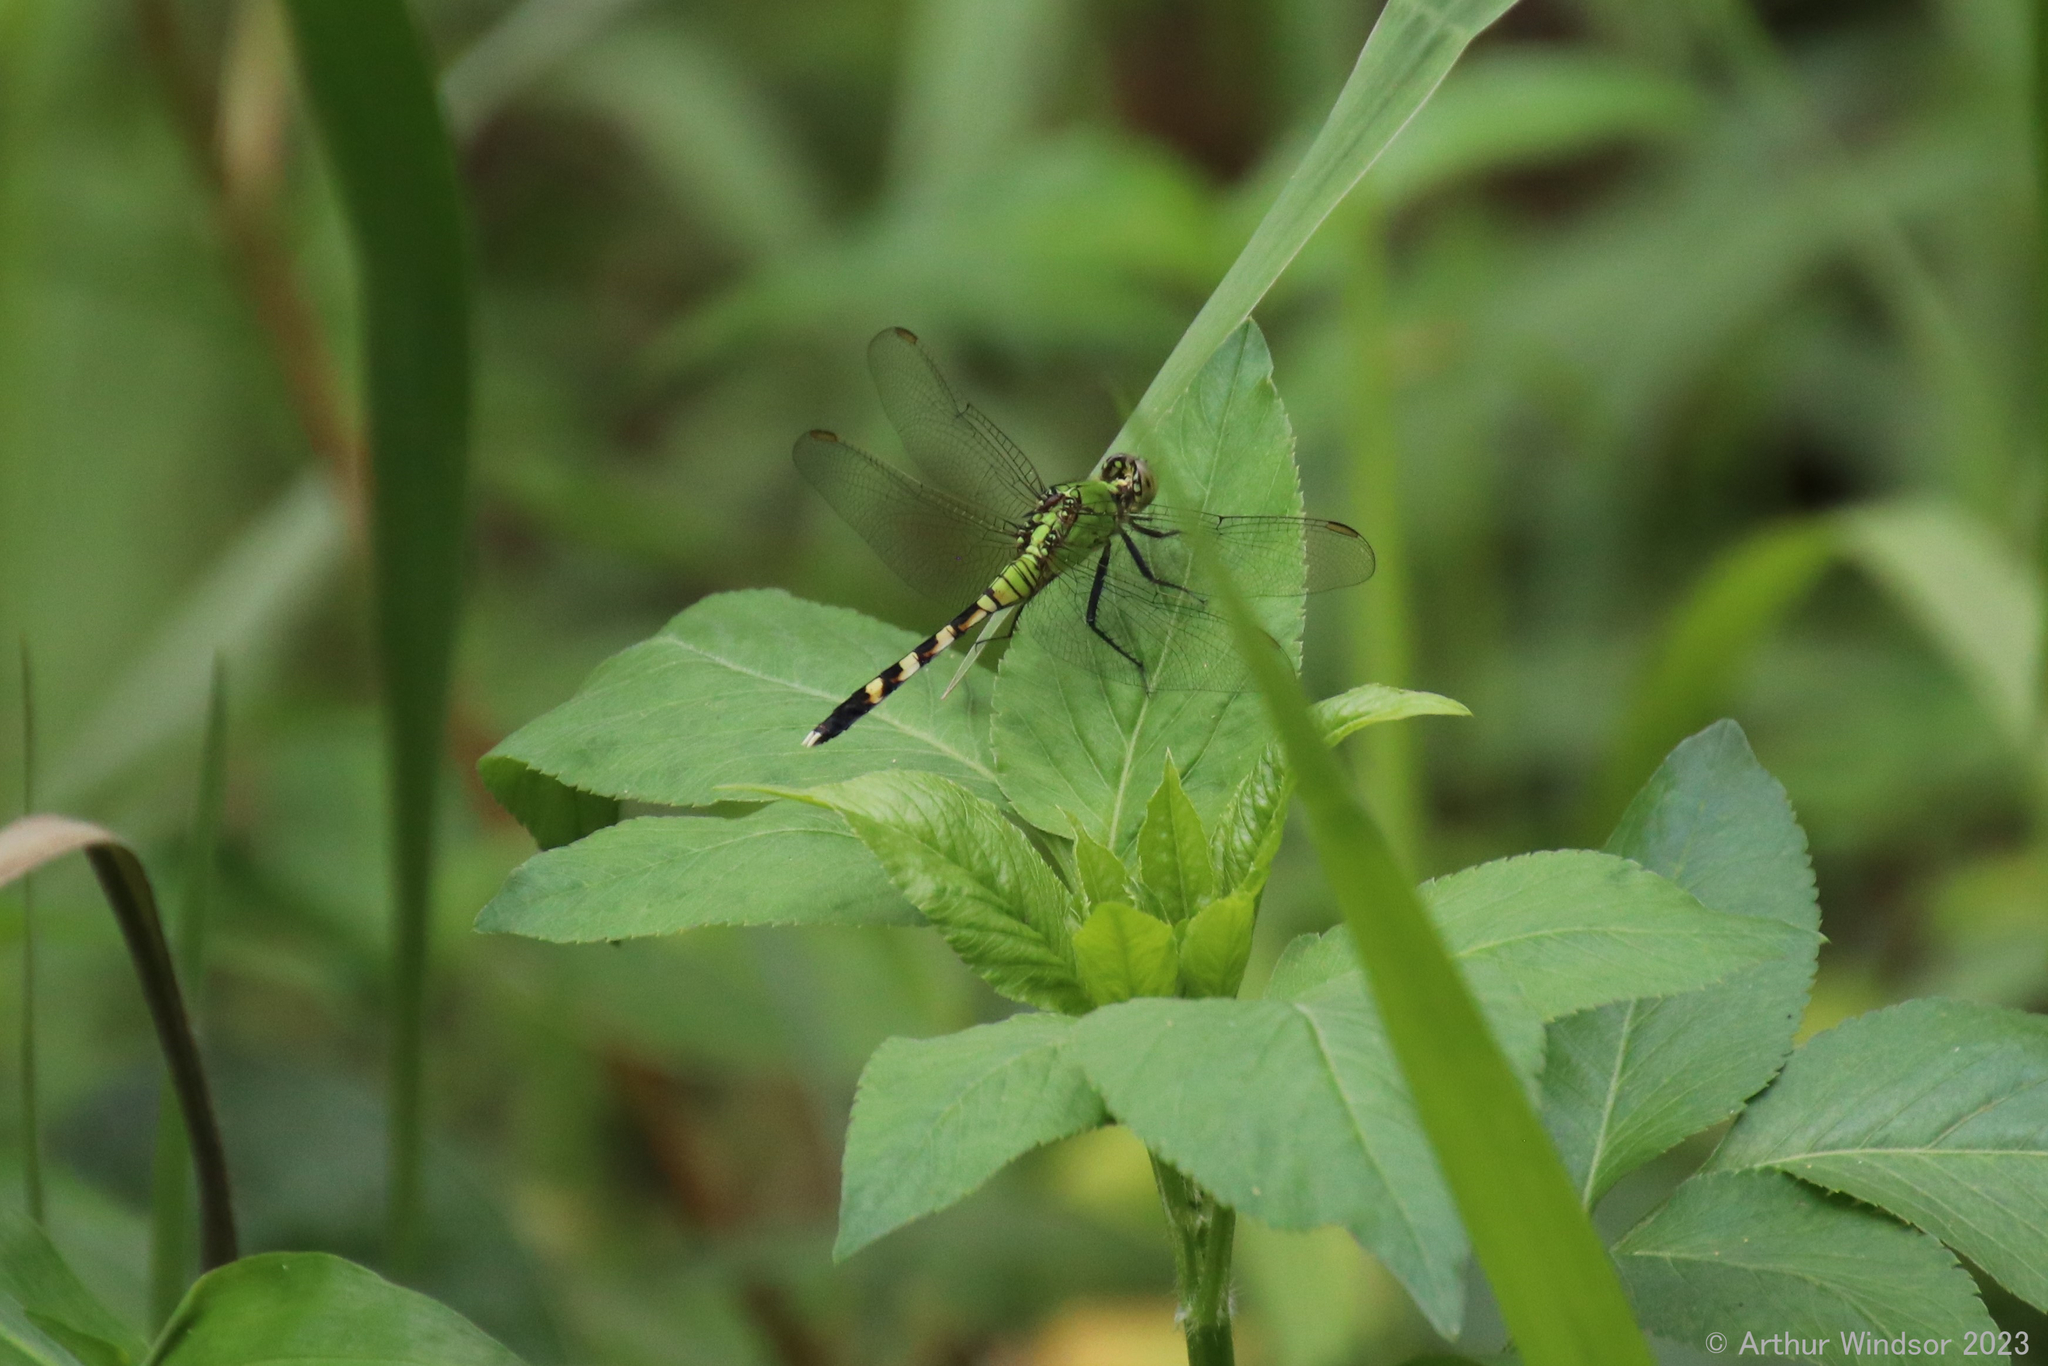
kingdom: Animalia
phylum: Arthropoda
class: Insecta
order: Odonata
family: Libellulidae
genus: Erythemis
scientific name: Erythemis simplicicollis
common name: Eastern pondhawk
